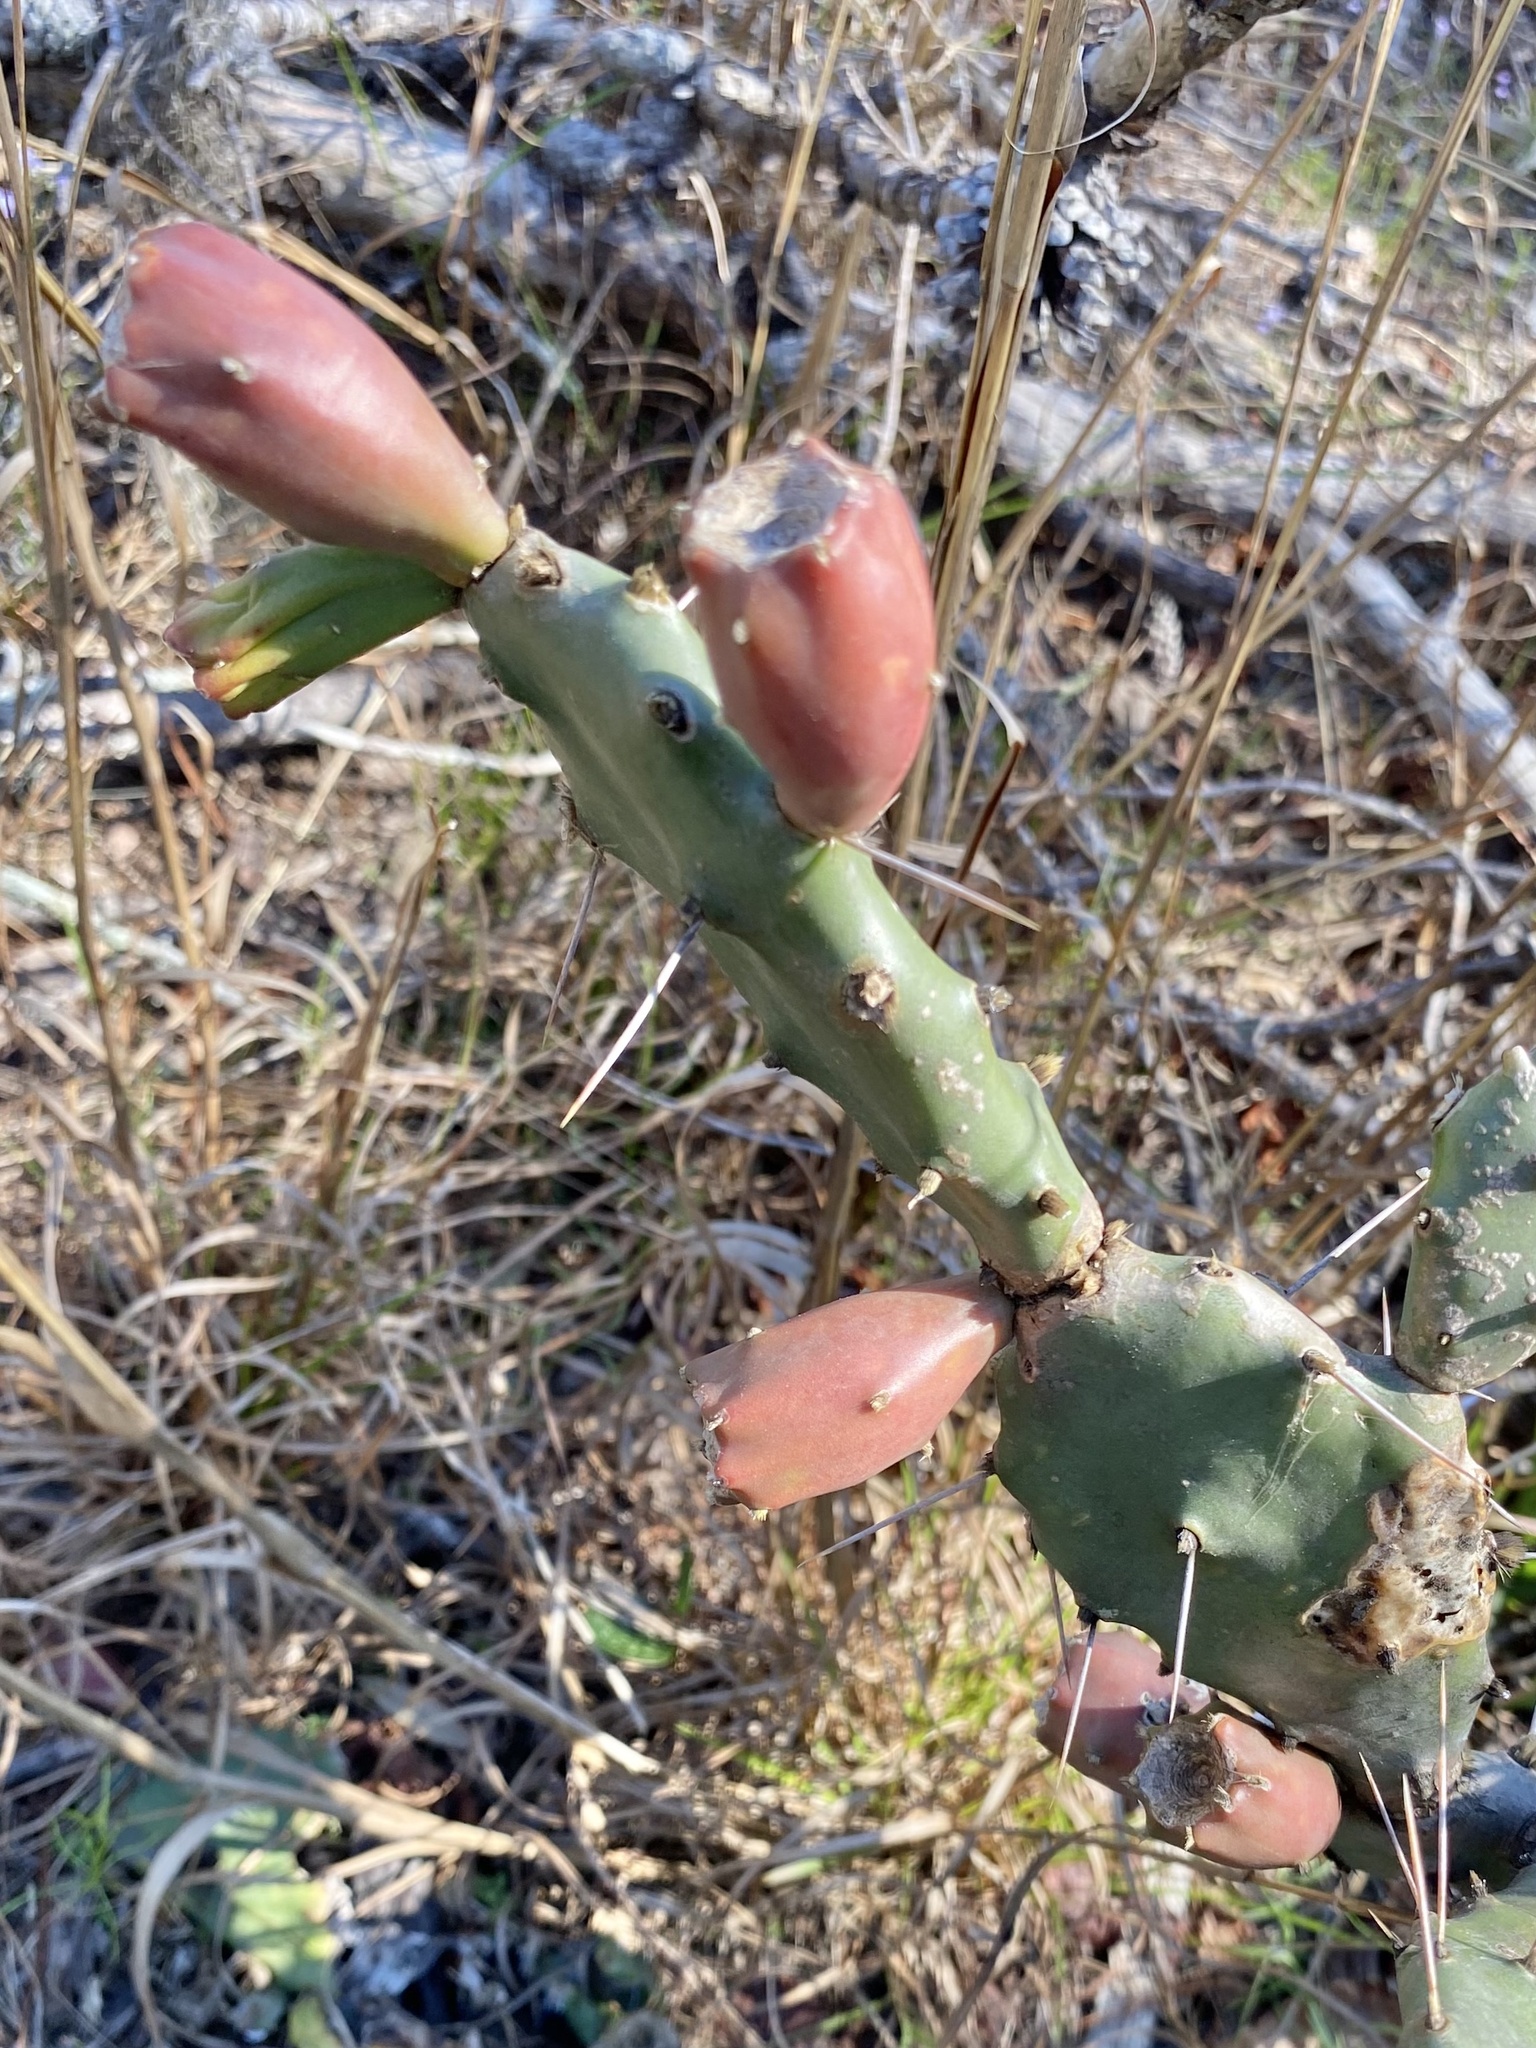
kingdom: Plantae
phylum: Tracheophyta
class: Magnoliopsida
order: Caryophyllales
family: Cactaceae
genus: Opuntia
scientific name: Opuntia austrina
